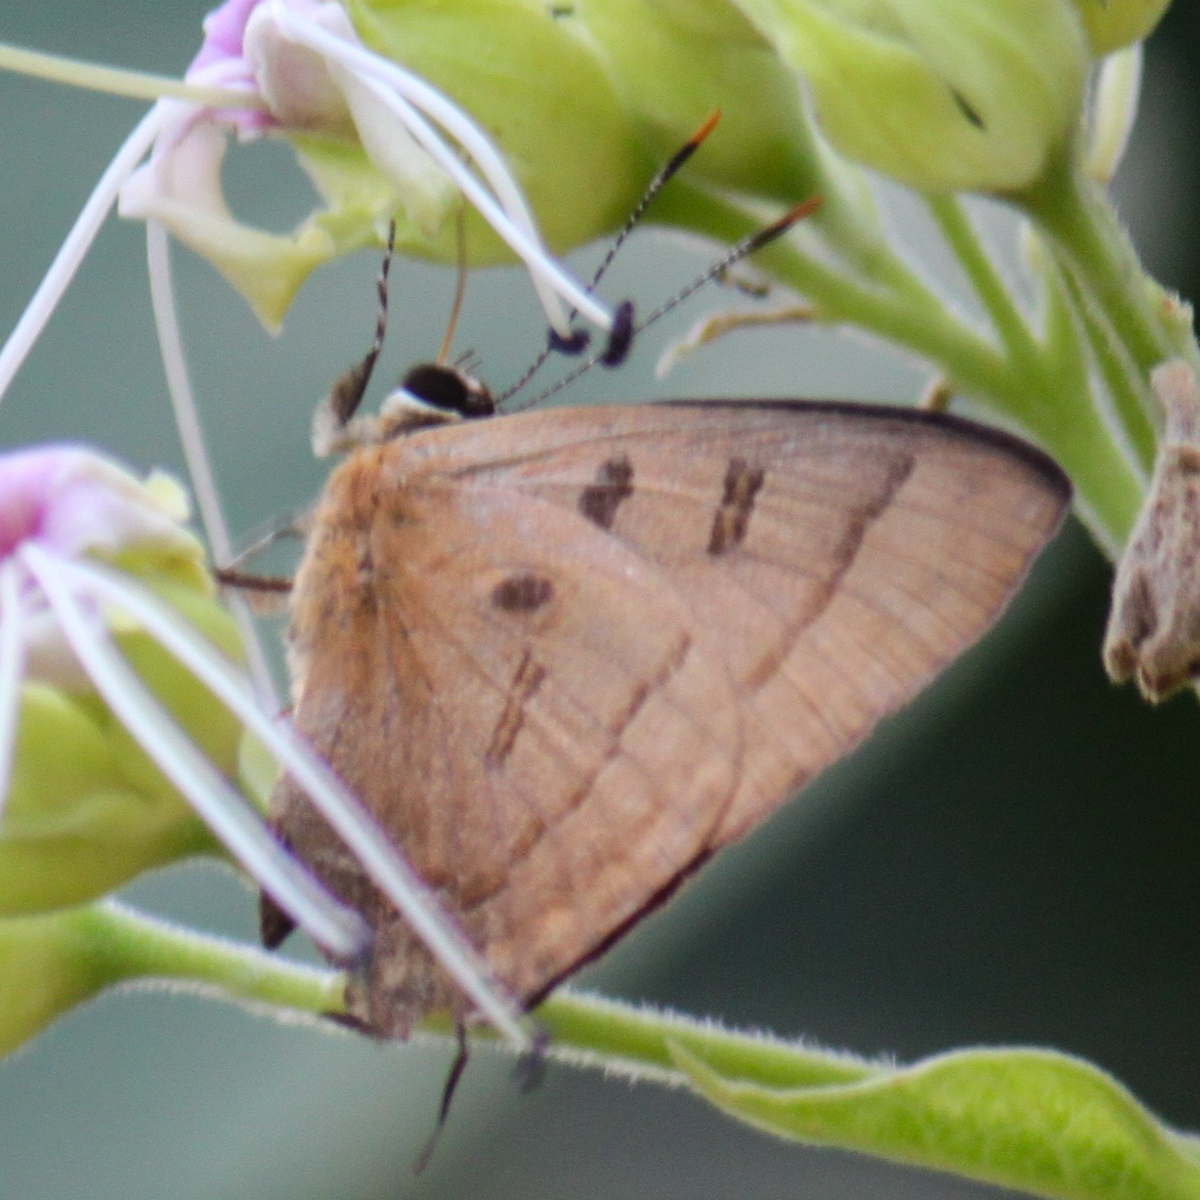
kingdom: Animalia
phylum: Arthropoda
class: Insecta
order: Lepidoptera
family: Lycaenidae
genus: Rapala
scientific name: Rapala pheretima
